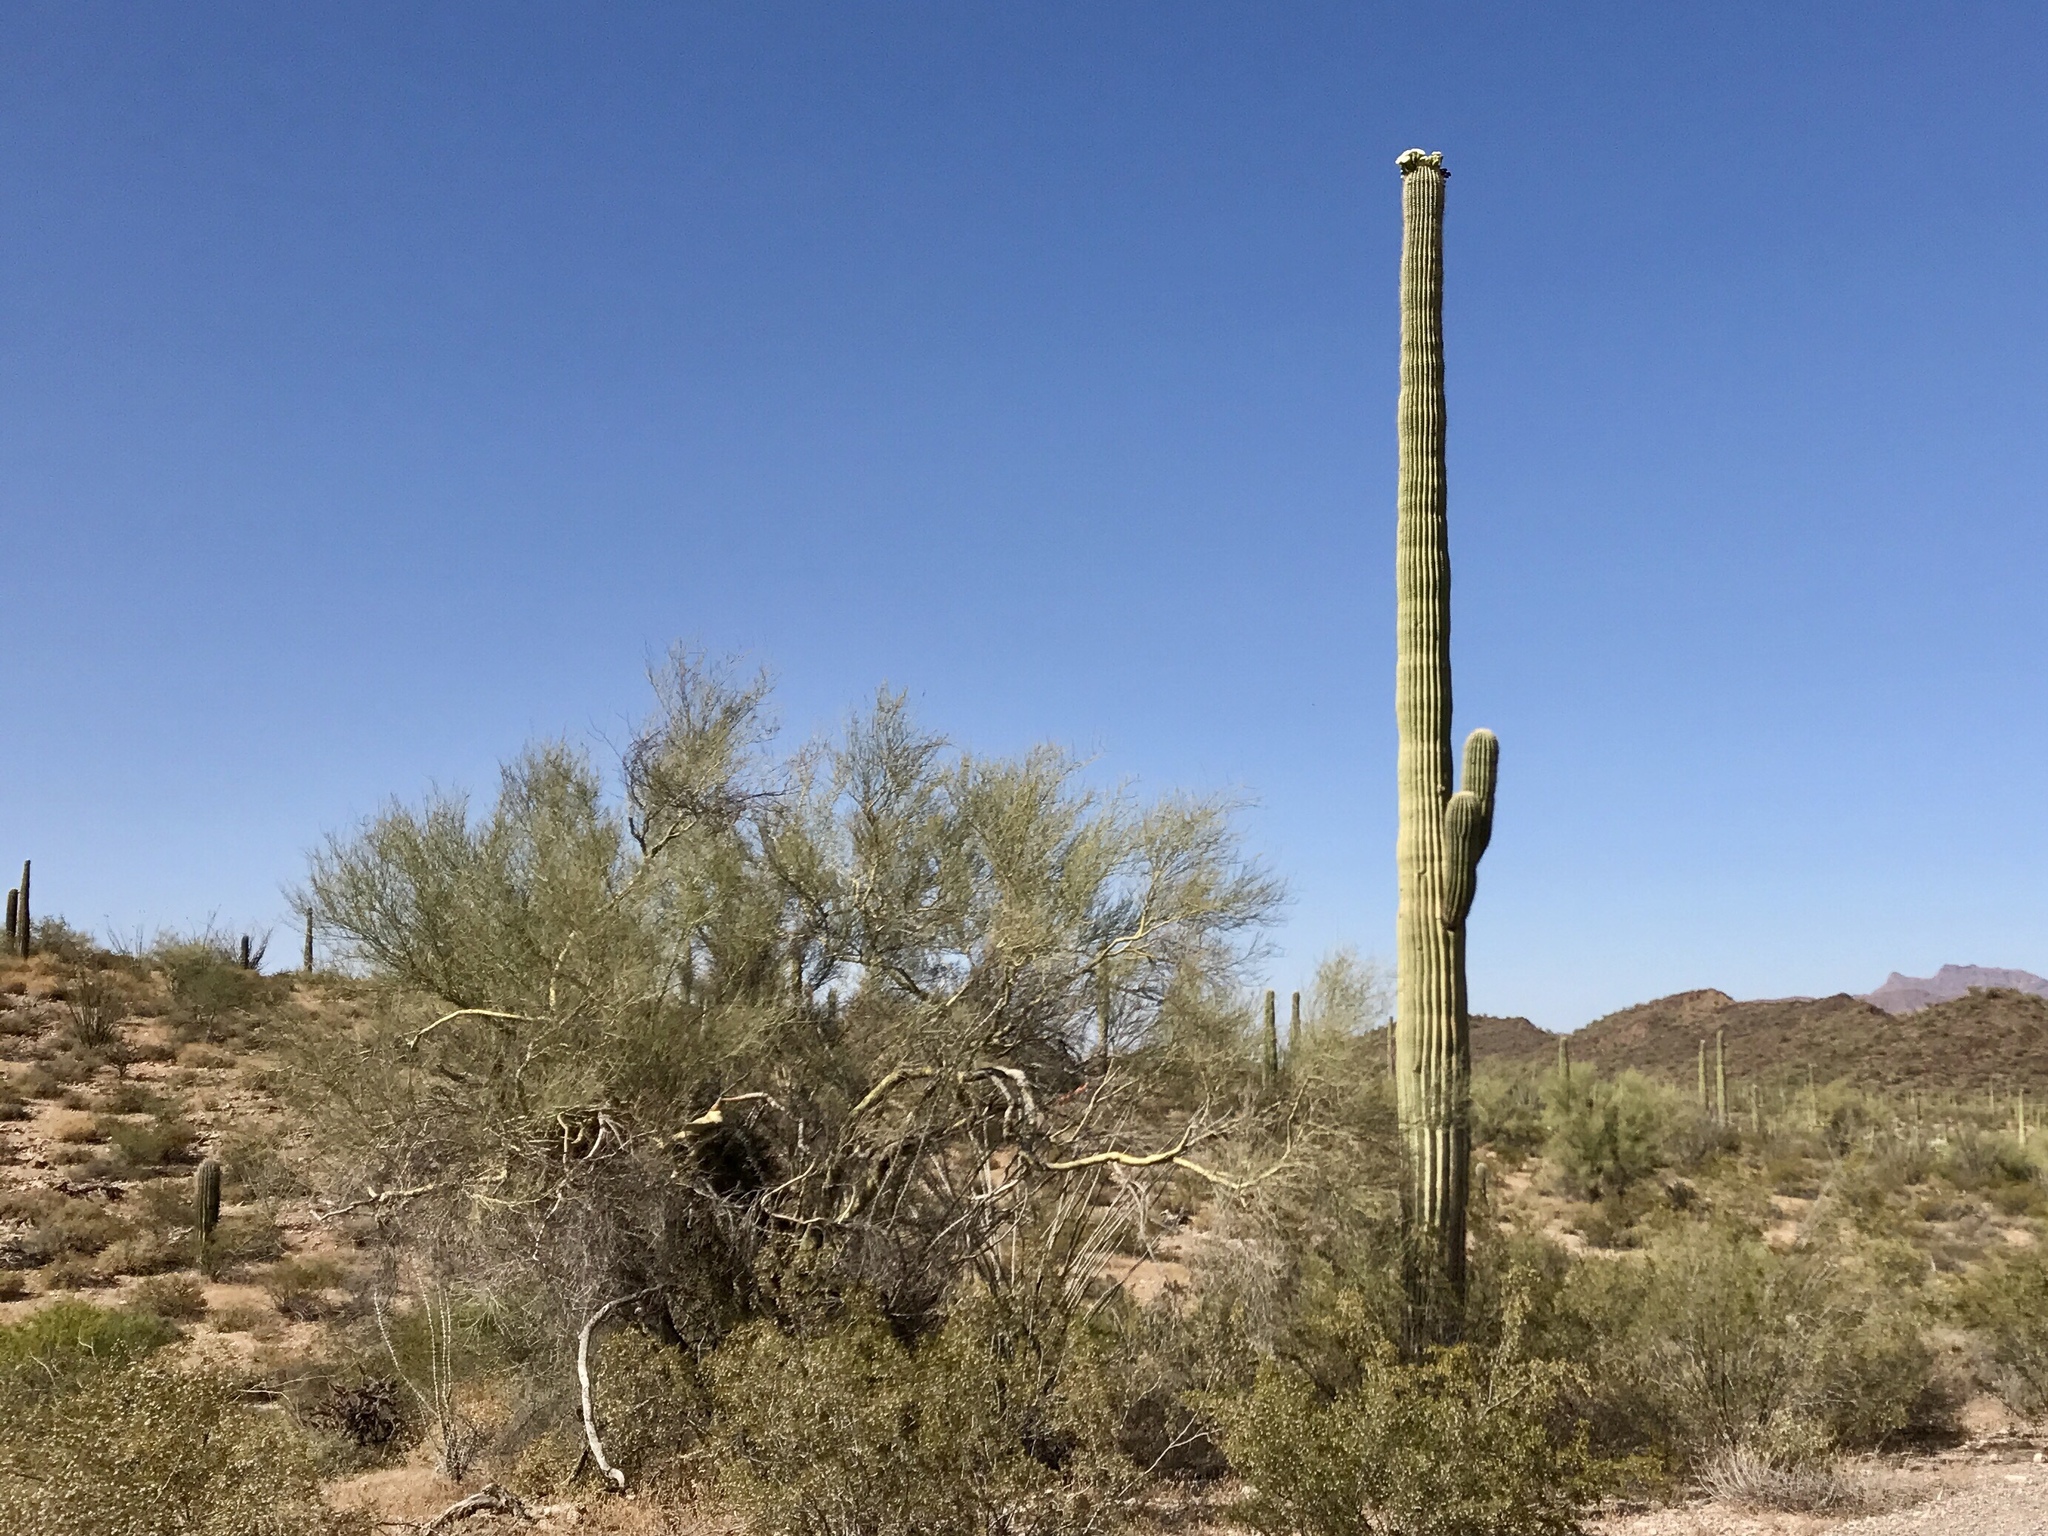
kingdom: Plantae
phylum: Tracheophyta
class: Magnoliopsida
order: Caryophyllales
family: Cactaceae
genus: Carnegiea
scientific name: Carnegiea gigantea
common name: Saguaro
